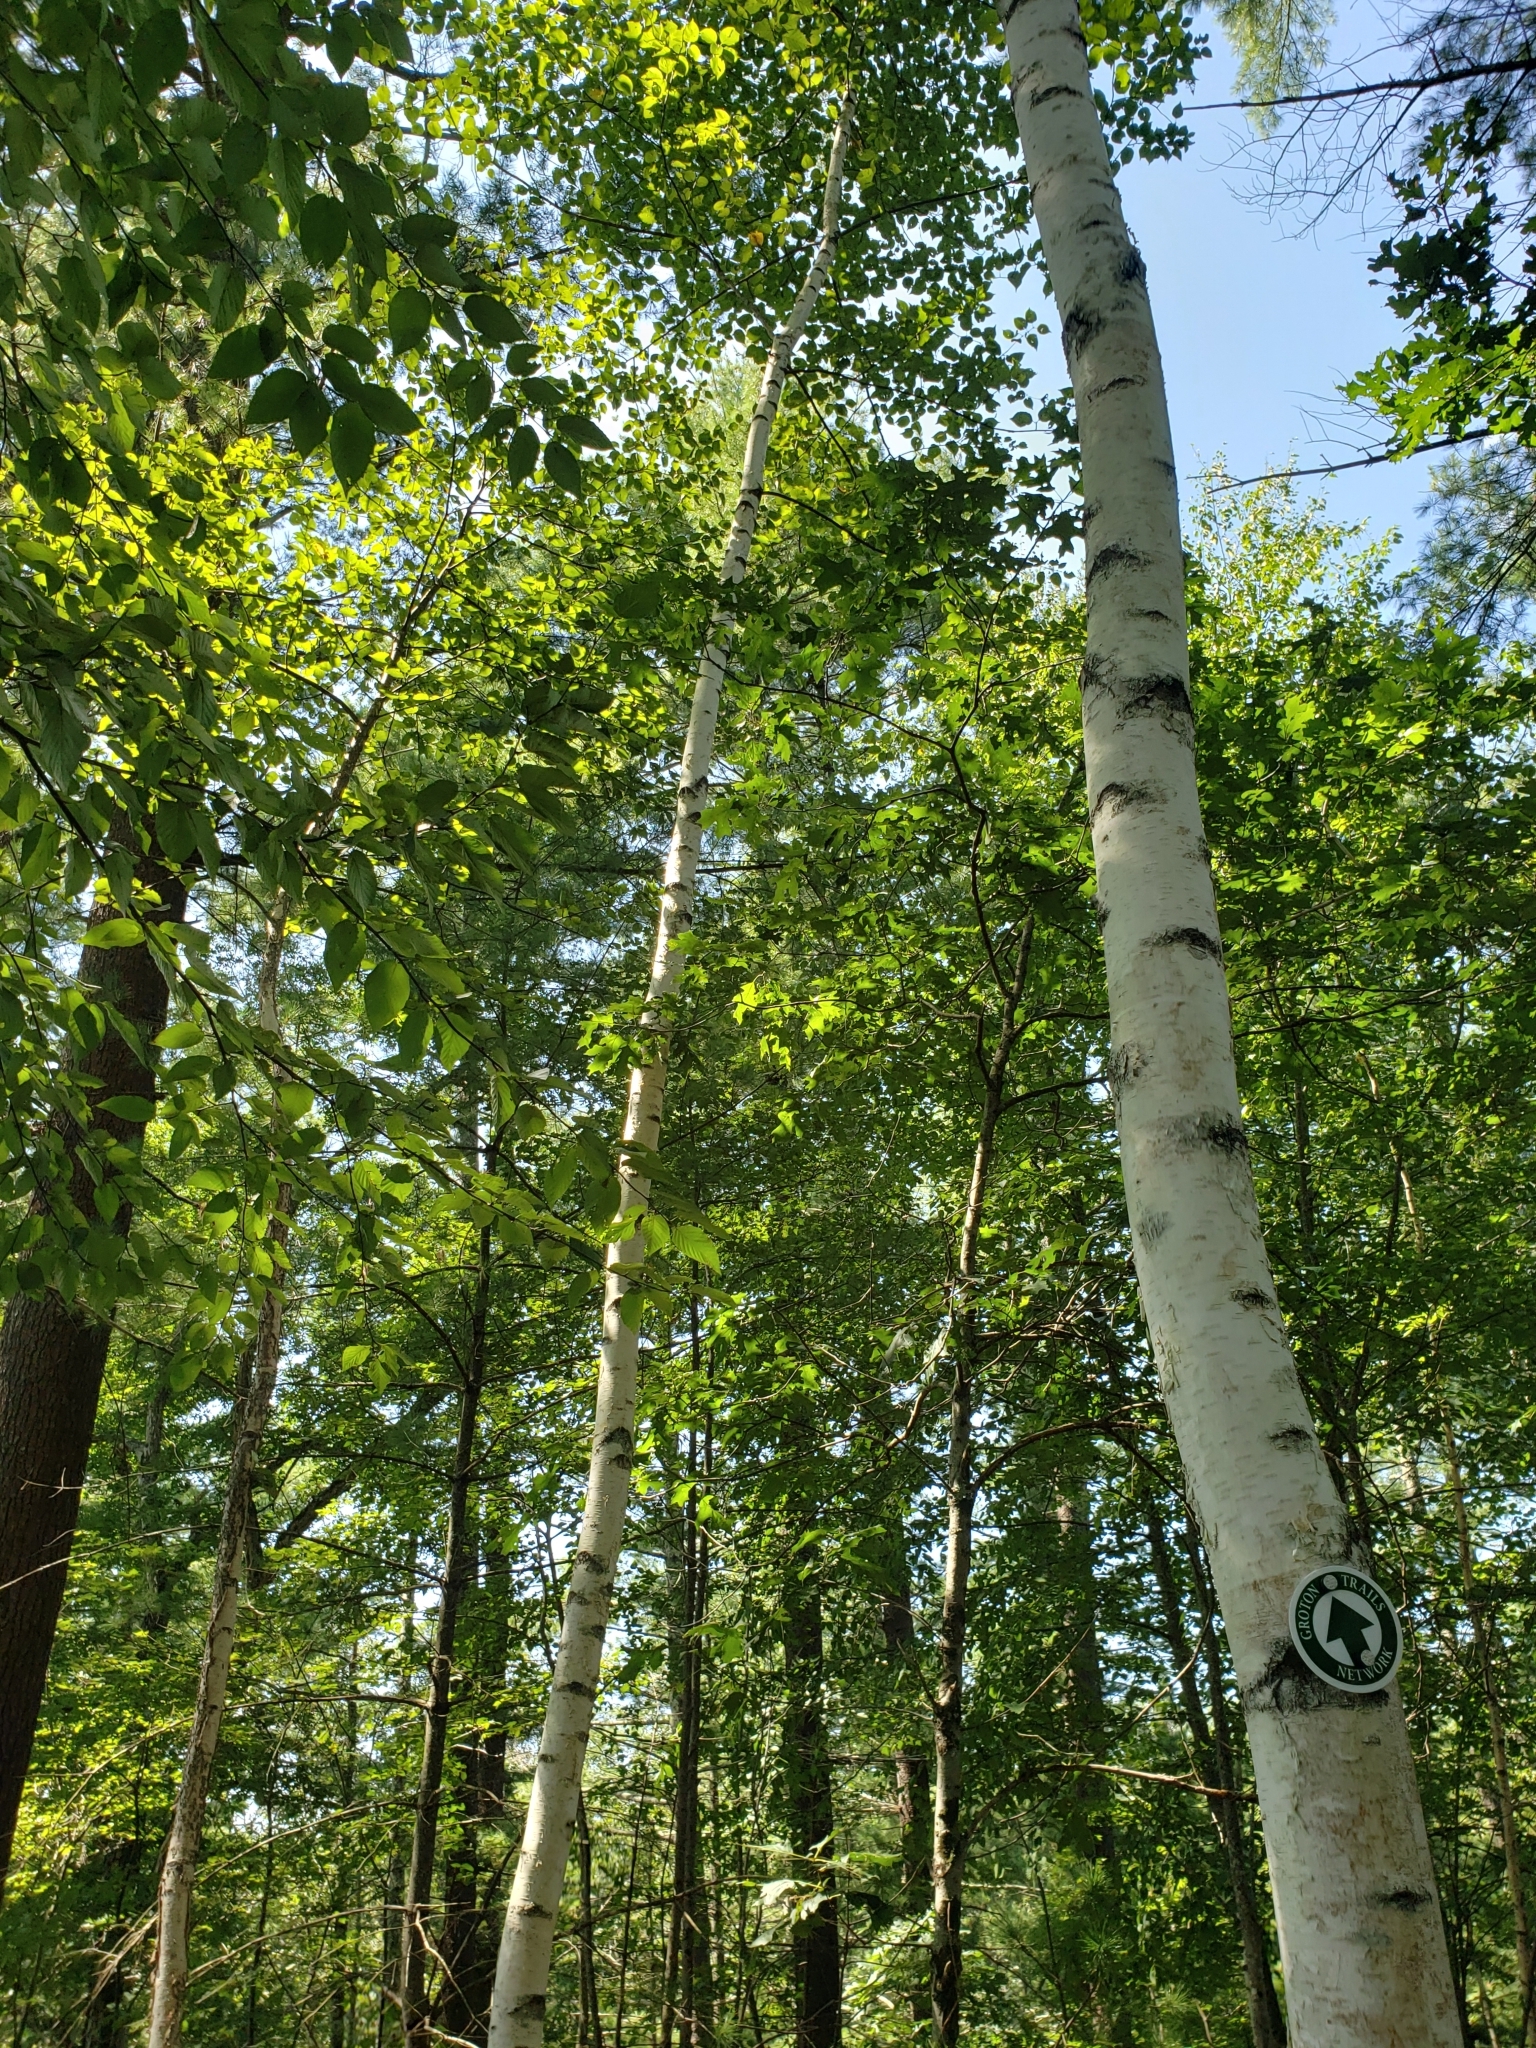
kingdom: Plantae
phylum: Tracheophyta
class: Magnoliopsida
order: Fagales
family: Betulaceae
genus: Betula
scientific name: Betula papyrifera
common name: Paper birch
